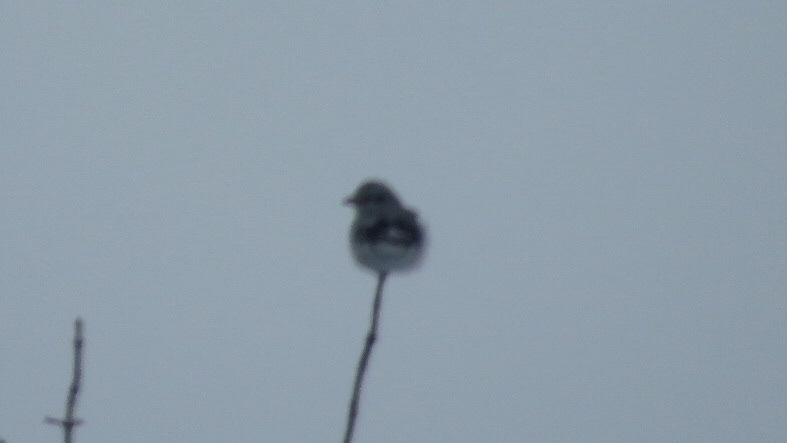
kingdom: Animalia
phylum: Chordata
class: Aves
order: Passeriformes
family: Laniidae
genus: Lanius
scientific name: Lanius borealis
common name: Northern shrike
